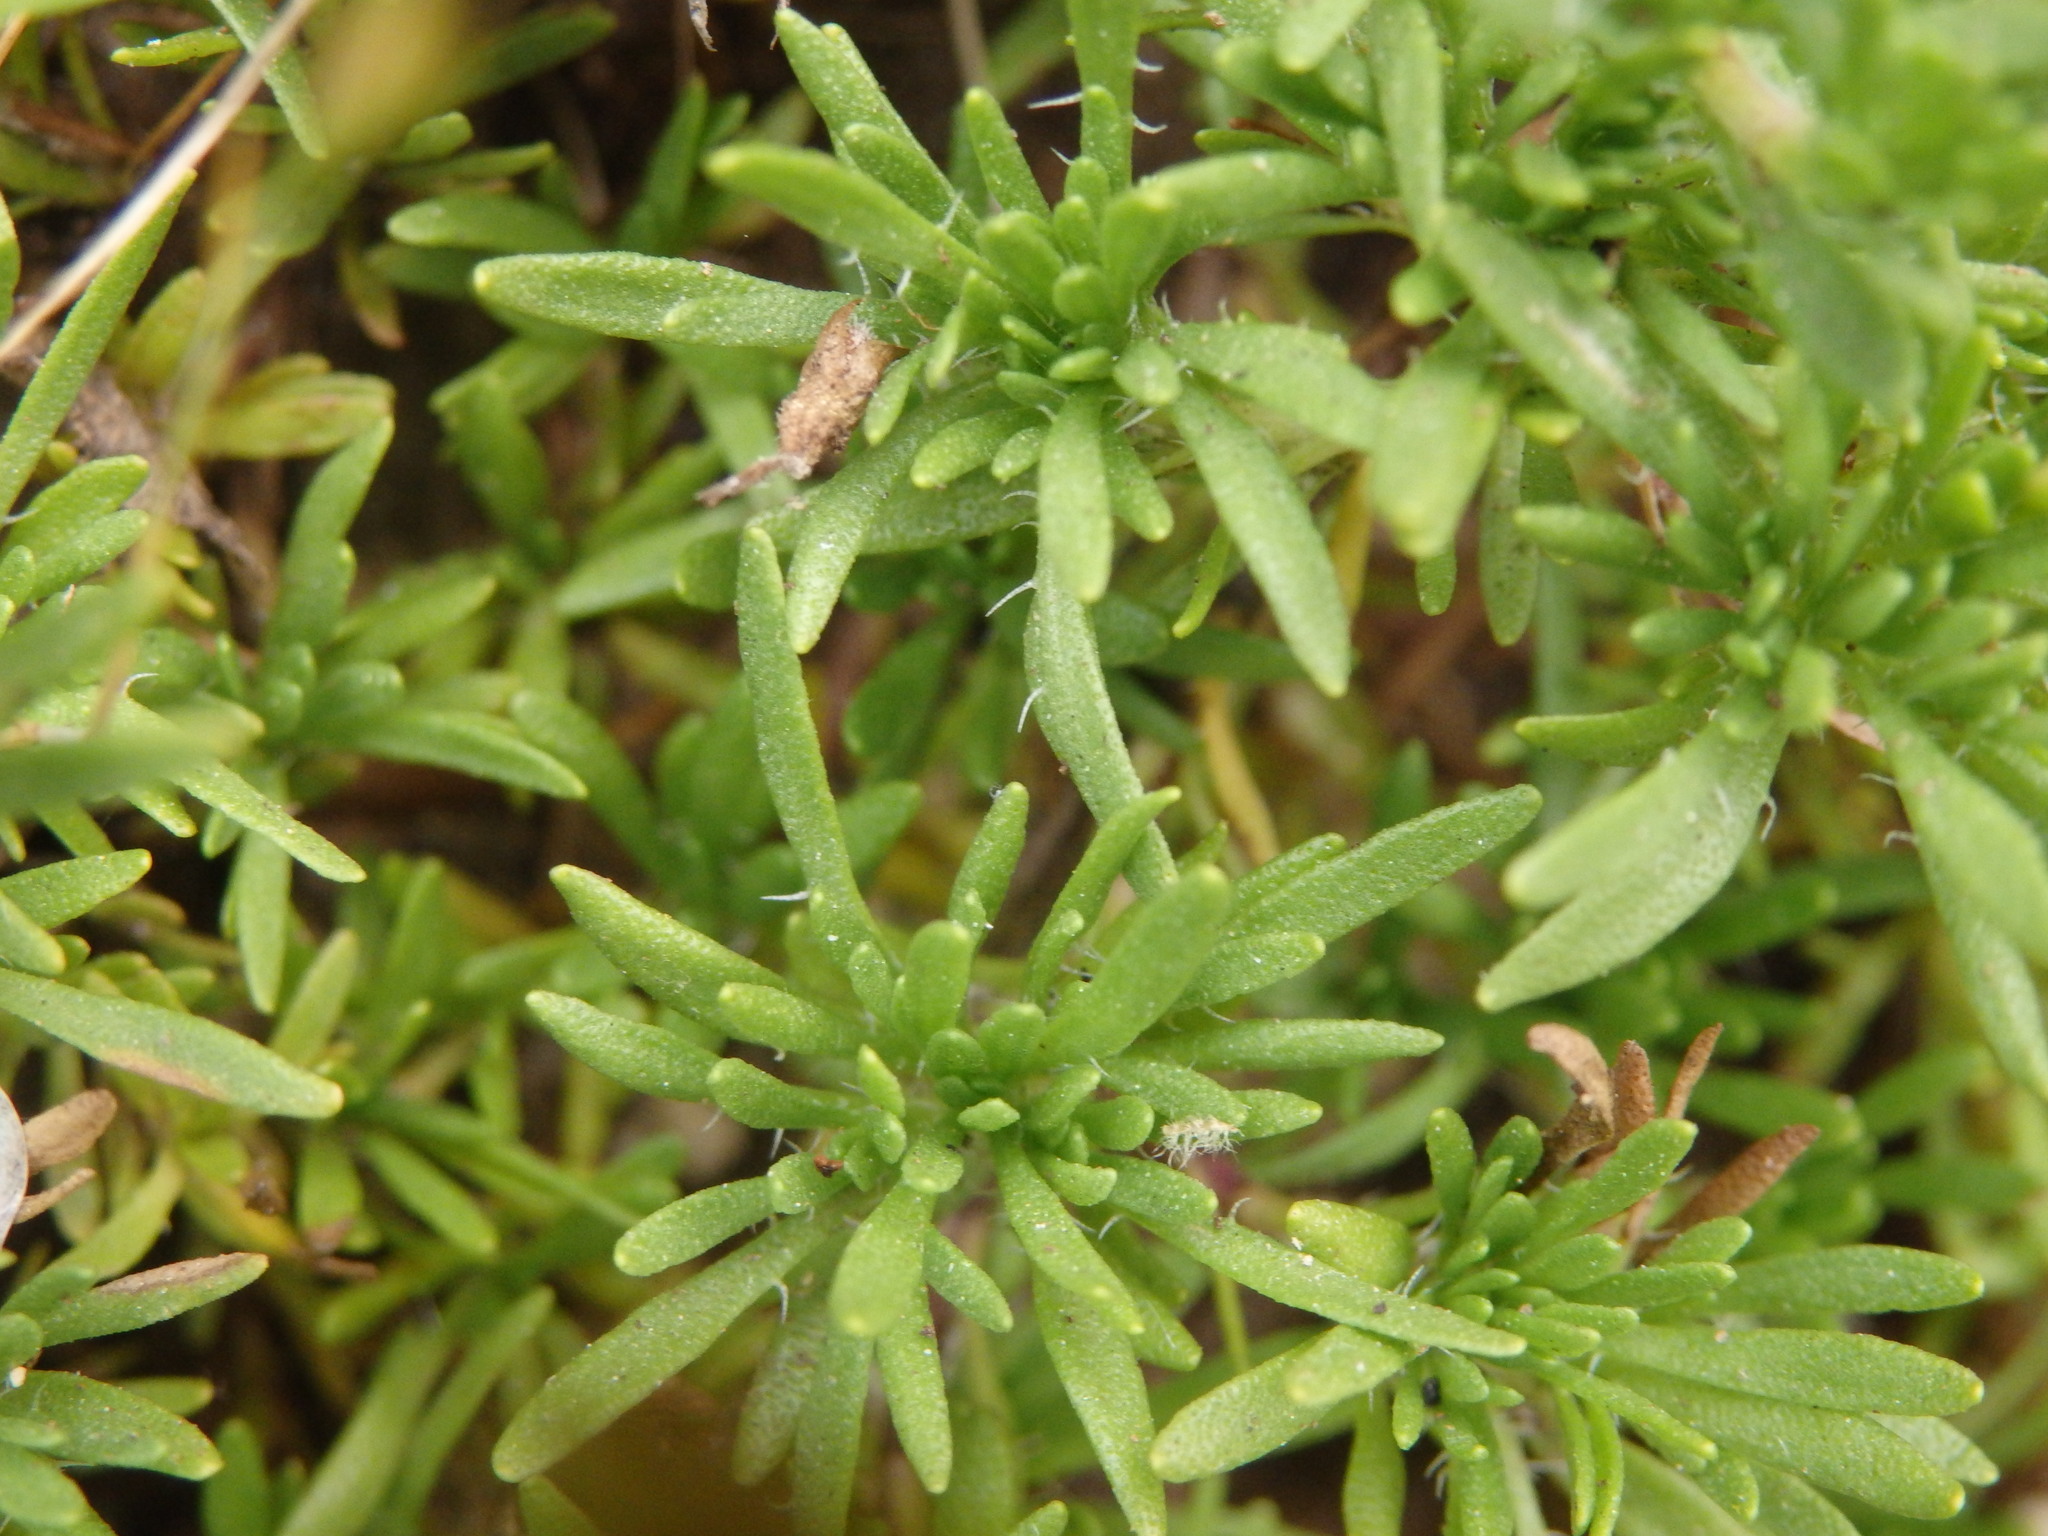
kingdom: Plantae
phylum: Tracheophyta
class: Magnoliopsida
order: Lamiales
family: Lamiaceae
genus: Thymus
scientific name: Thymus caespititius
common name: Azores thyme
